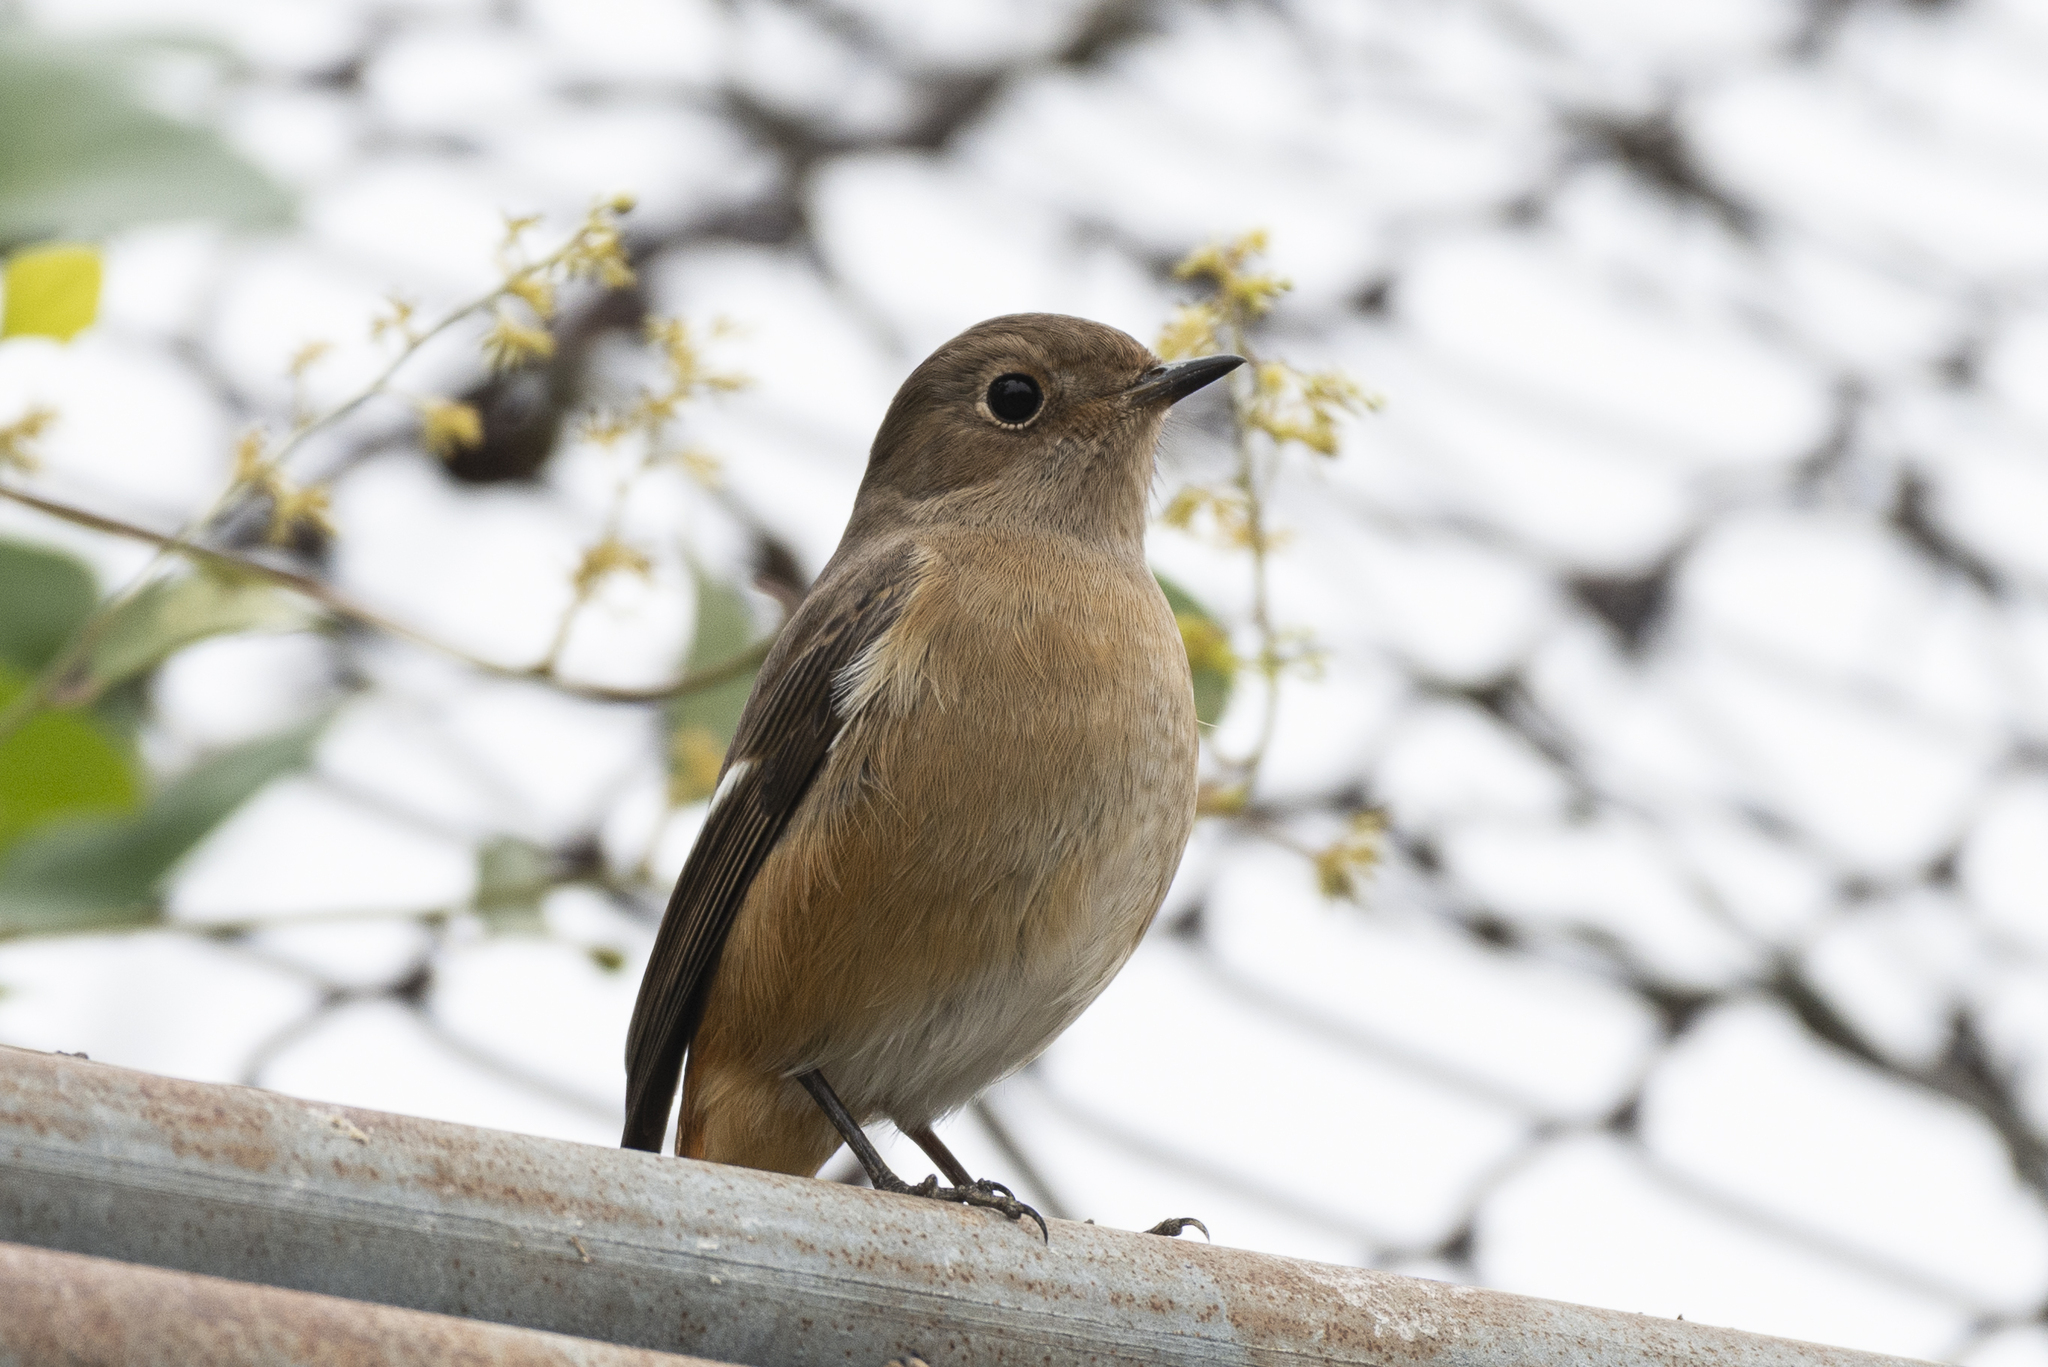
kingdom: Animalia
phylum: Chordata
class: Aves
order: Passeriformes
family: Muscicapidae
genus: Phoenicurus
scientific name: Phoenicurus auroreus
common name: Daurian redstart
